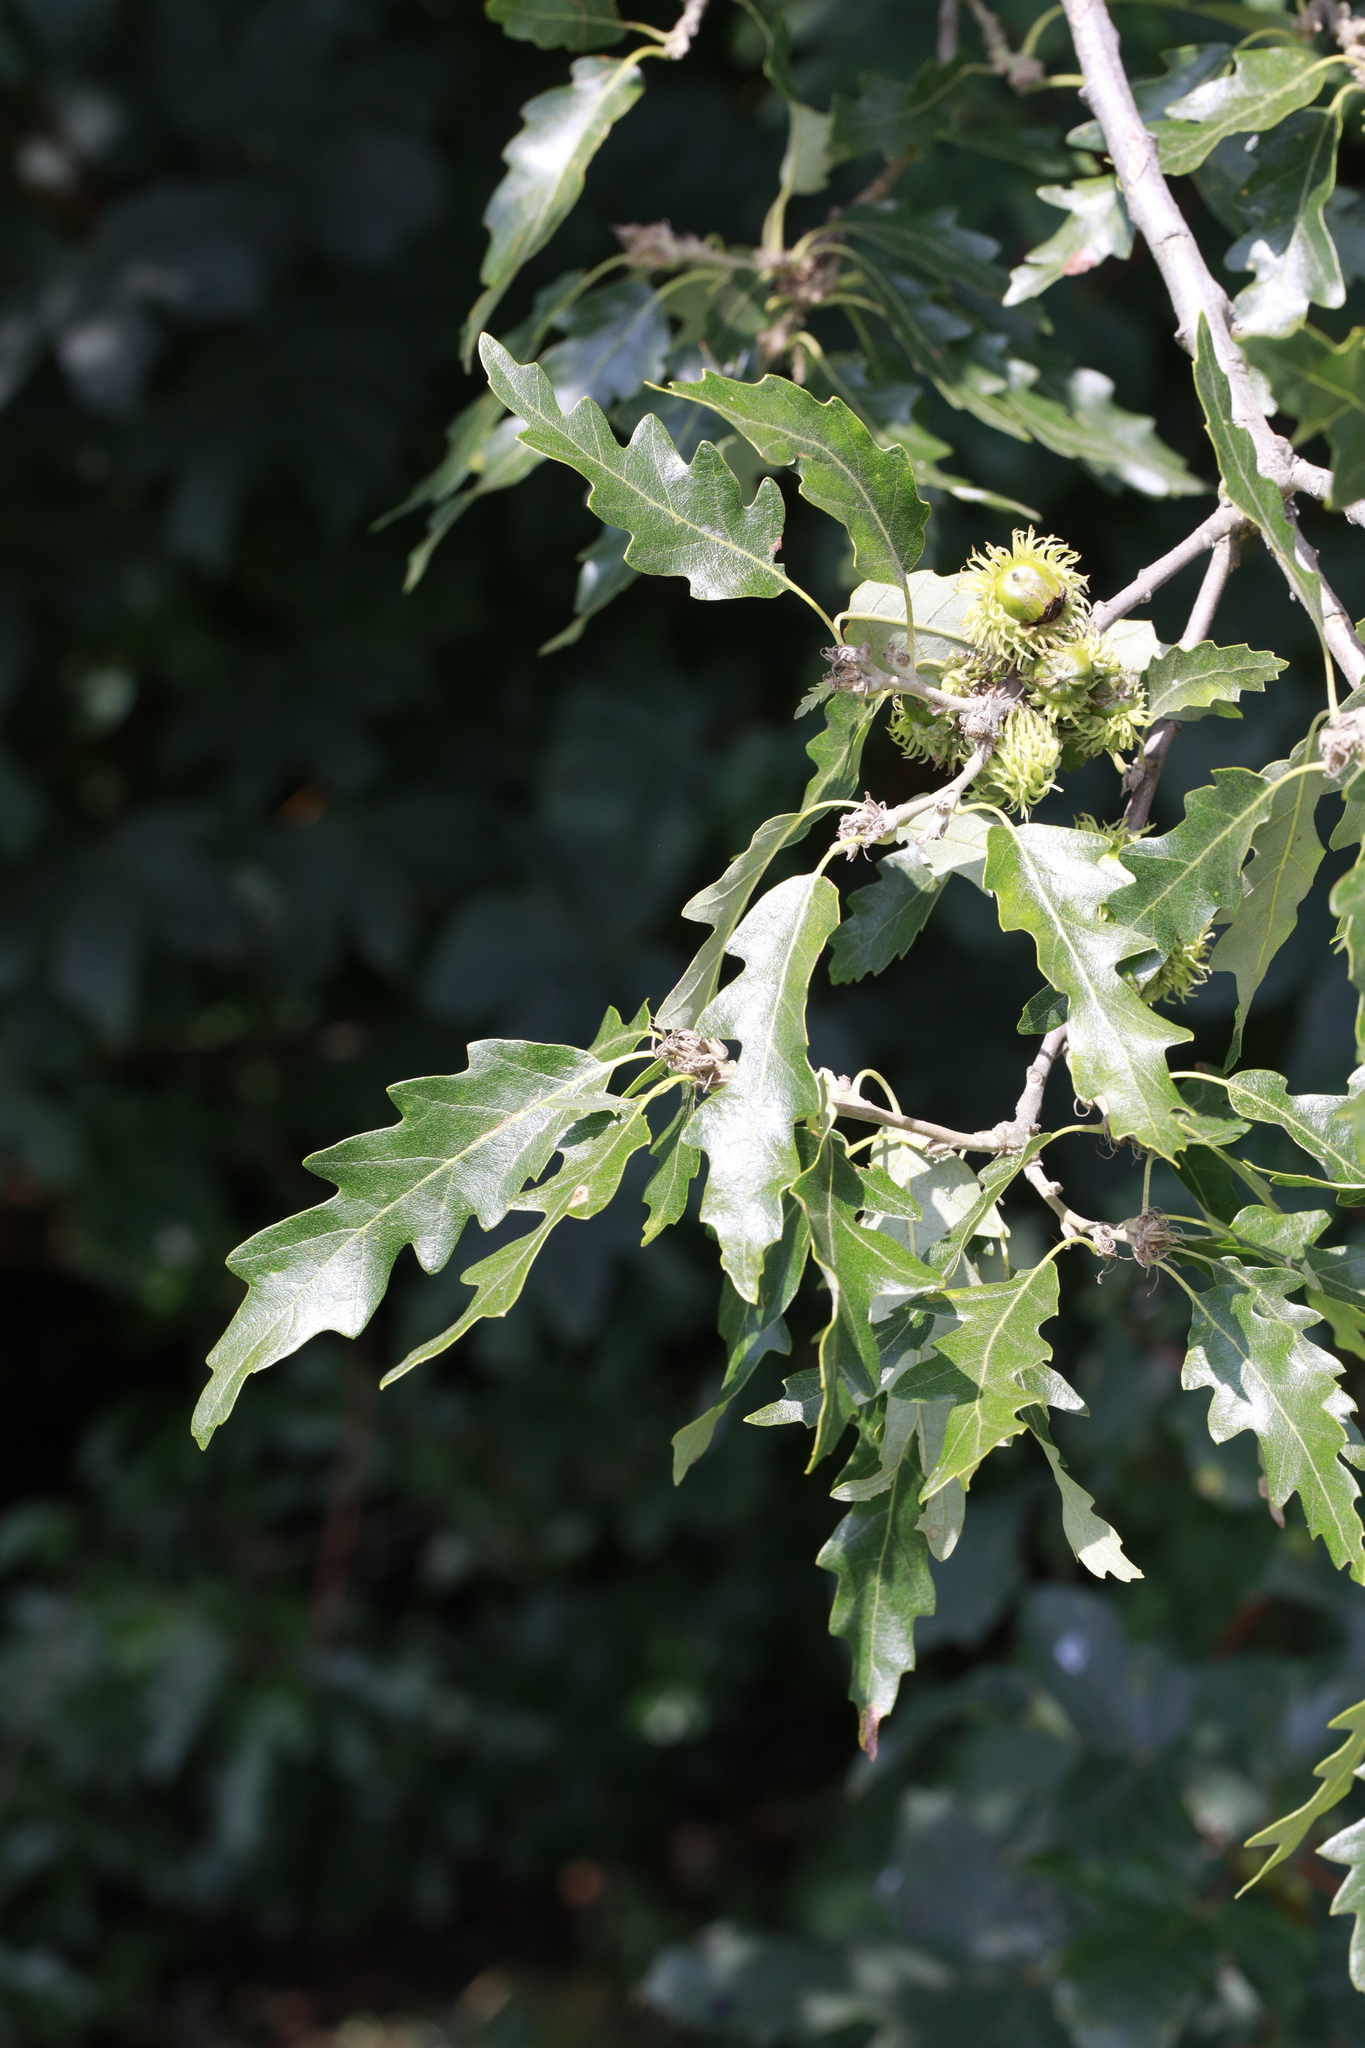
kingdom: Plantae
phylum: Tracheophyta
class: Magnoliopsida
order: Fagales
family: Fagaceae
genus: Quercus
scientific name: Quercus cerris
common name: Turkey oak
